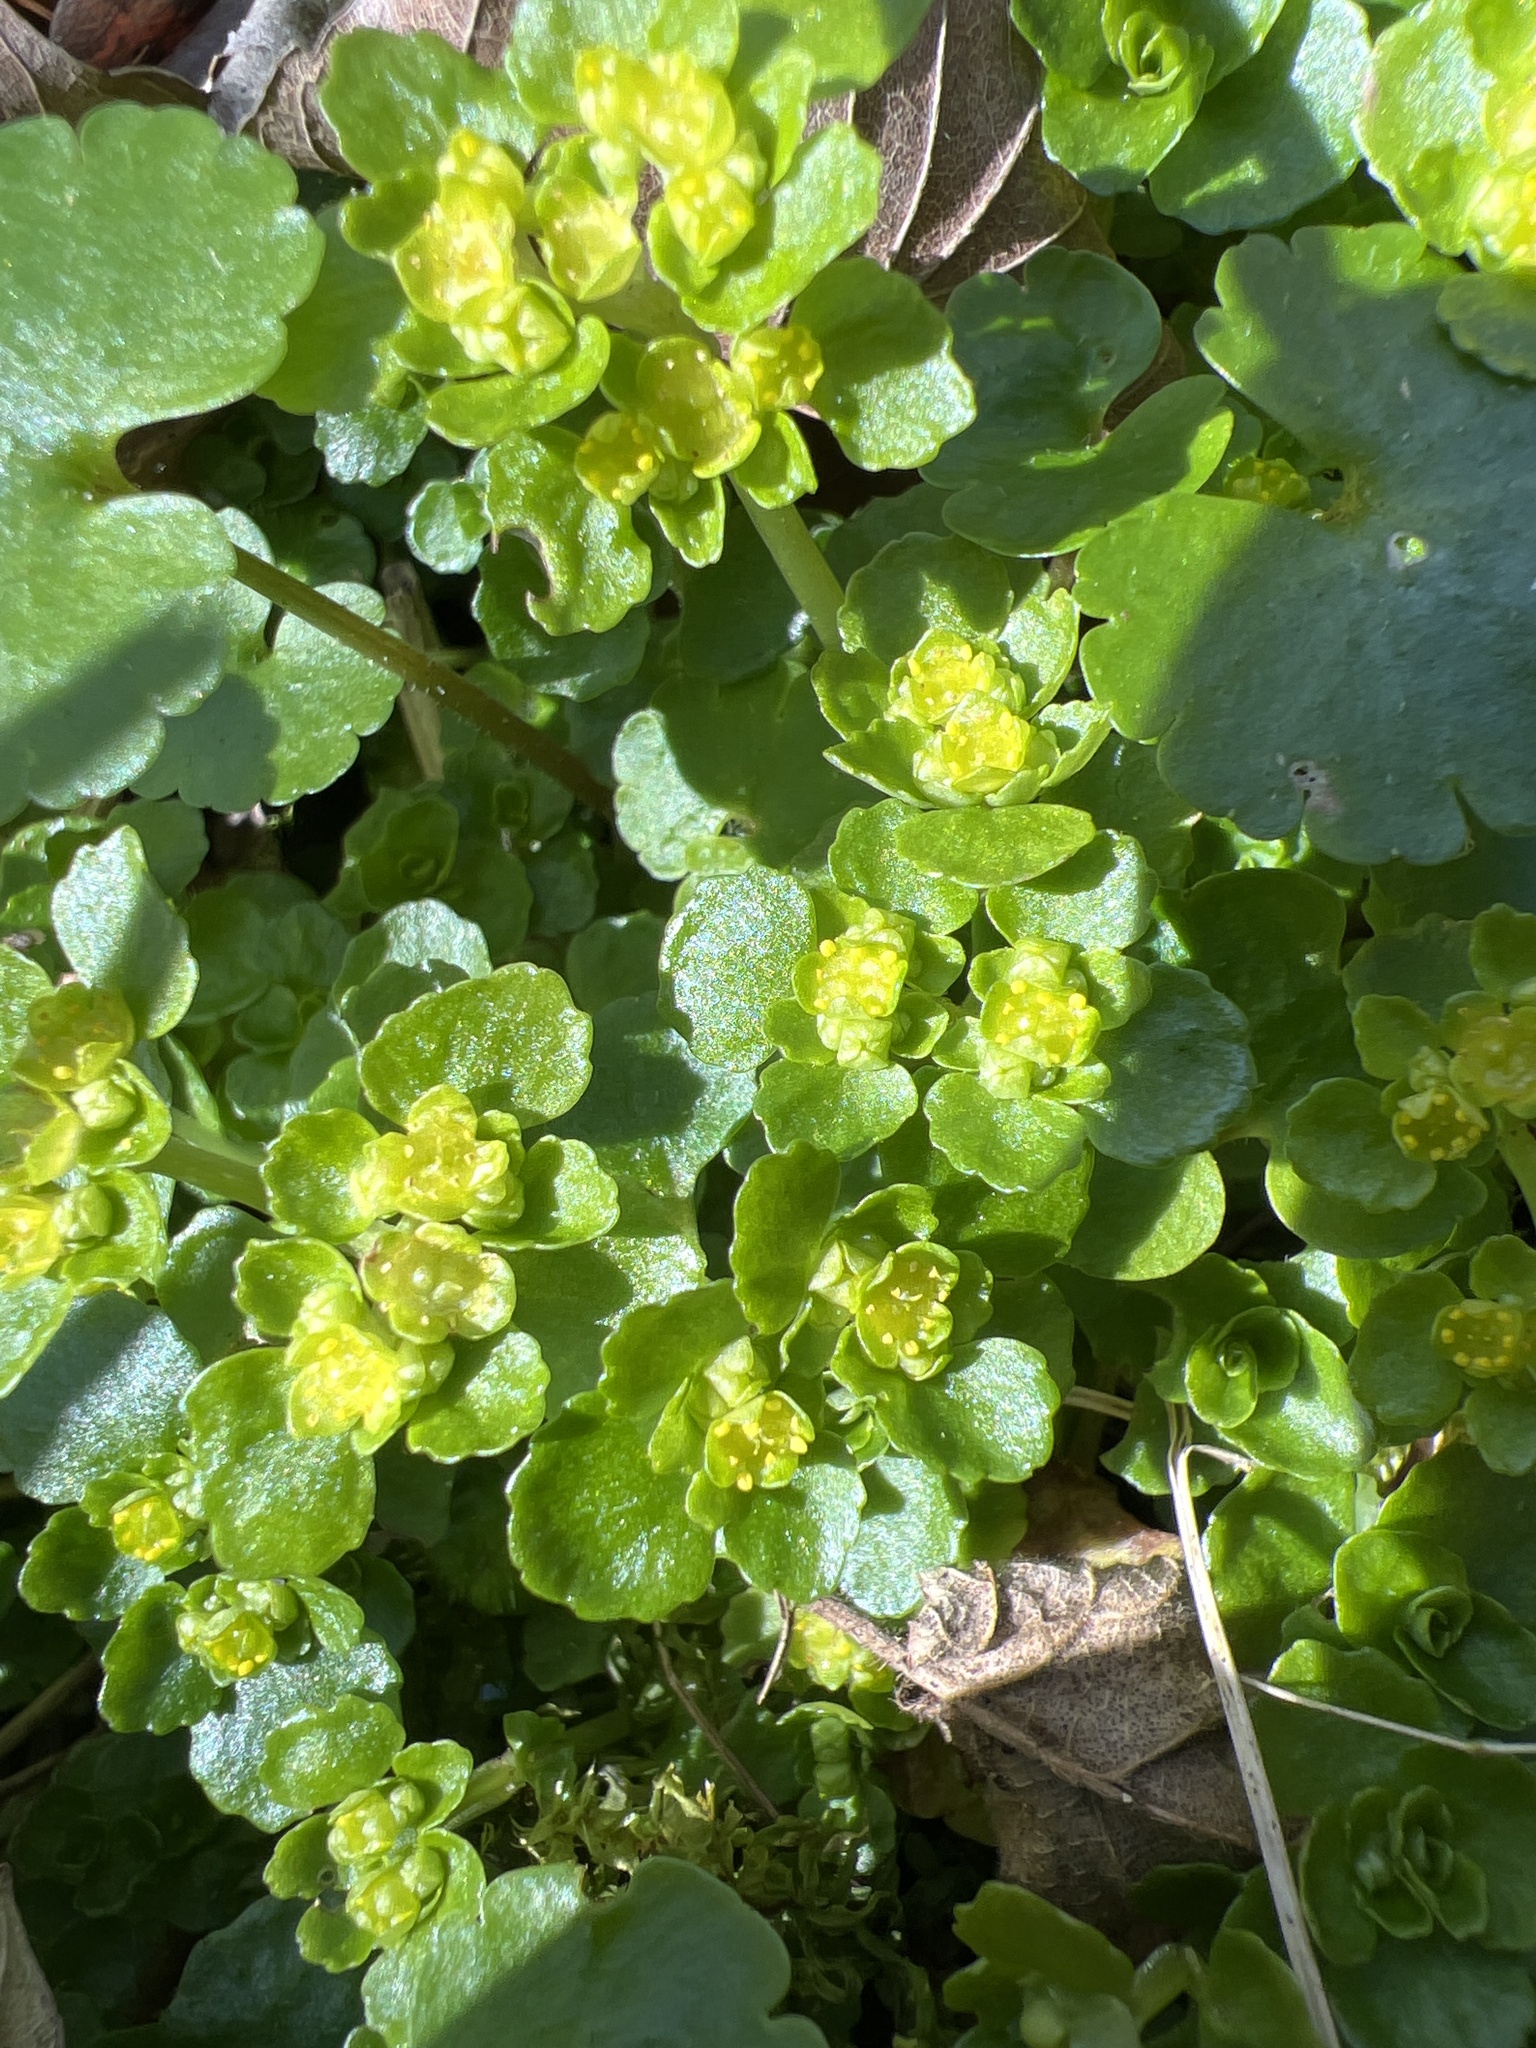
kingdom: Plantae
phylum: Tracheophyta
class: Magnoliopsida
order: Saxifragales
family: Saxifragaceae
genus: Chrysosplenium
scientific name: Chrysosplenium oppositifolium
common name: Opposite-leaved golden-saxifrage
